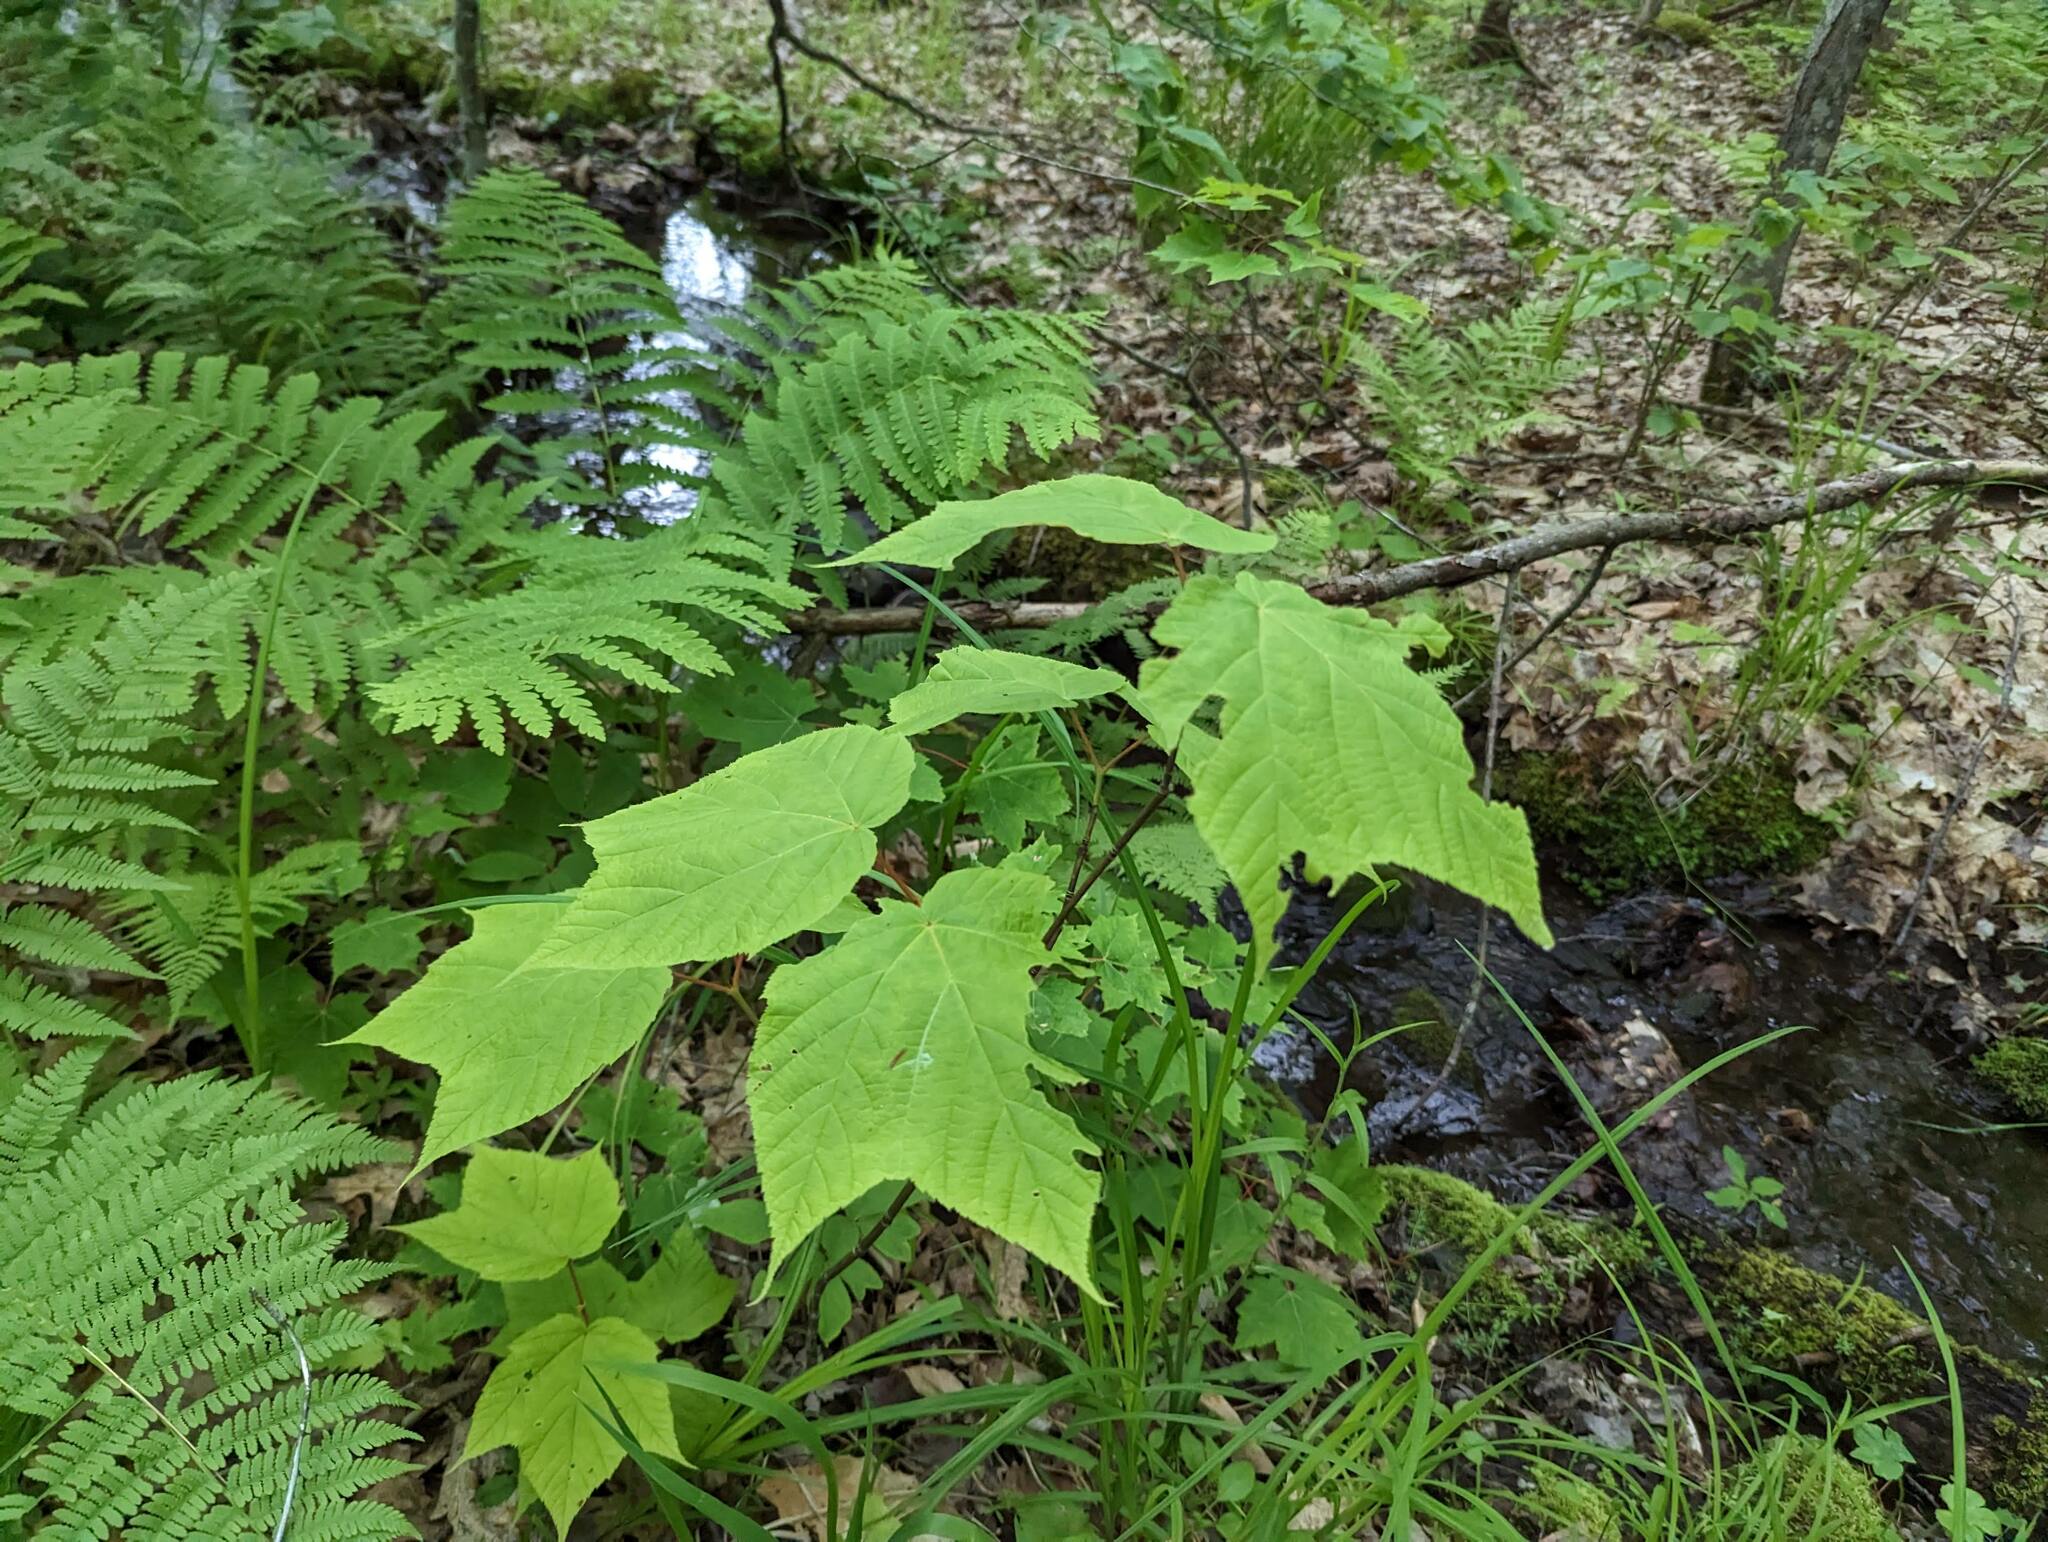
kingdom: Plantae
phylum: Tracheophyta
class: Magnoliopsida
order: Sapindales
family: Sapindaceae
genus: Acer
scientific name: Acer pensylvanicum
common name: Moosewood
